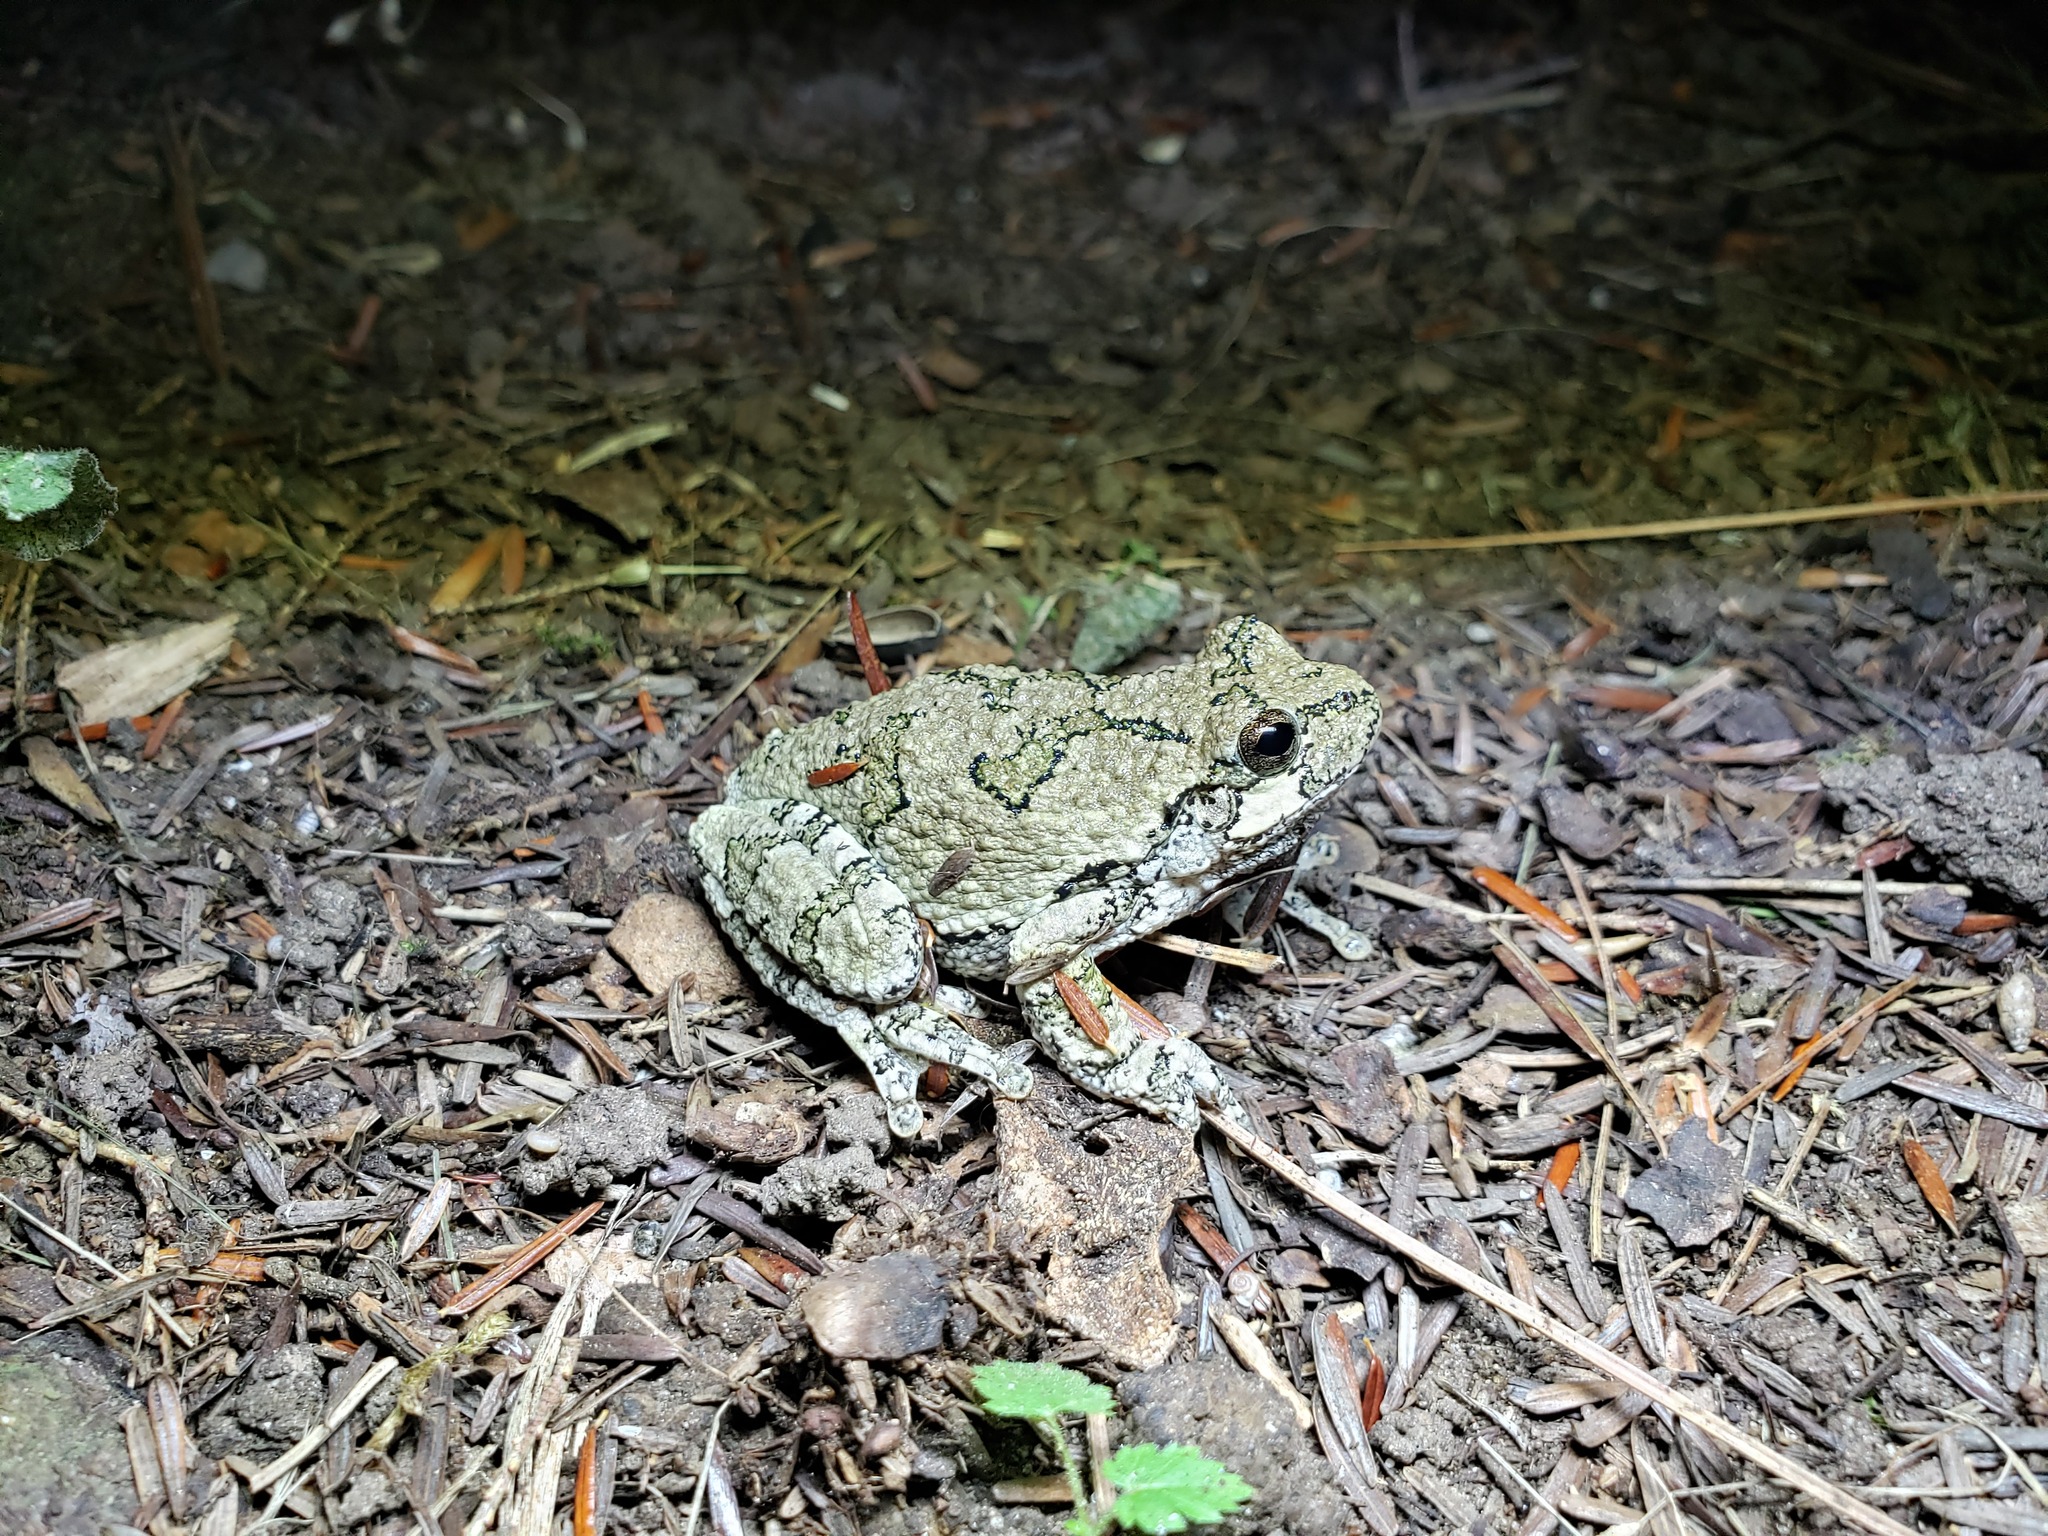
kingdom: Animalia
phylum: Chordata
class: Amphibia
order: Anura
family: Hylidae
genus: Dryophytes
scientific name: Dryophytes versicolor
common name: Gray treefrog
